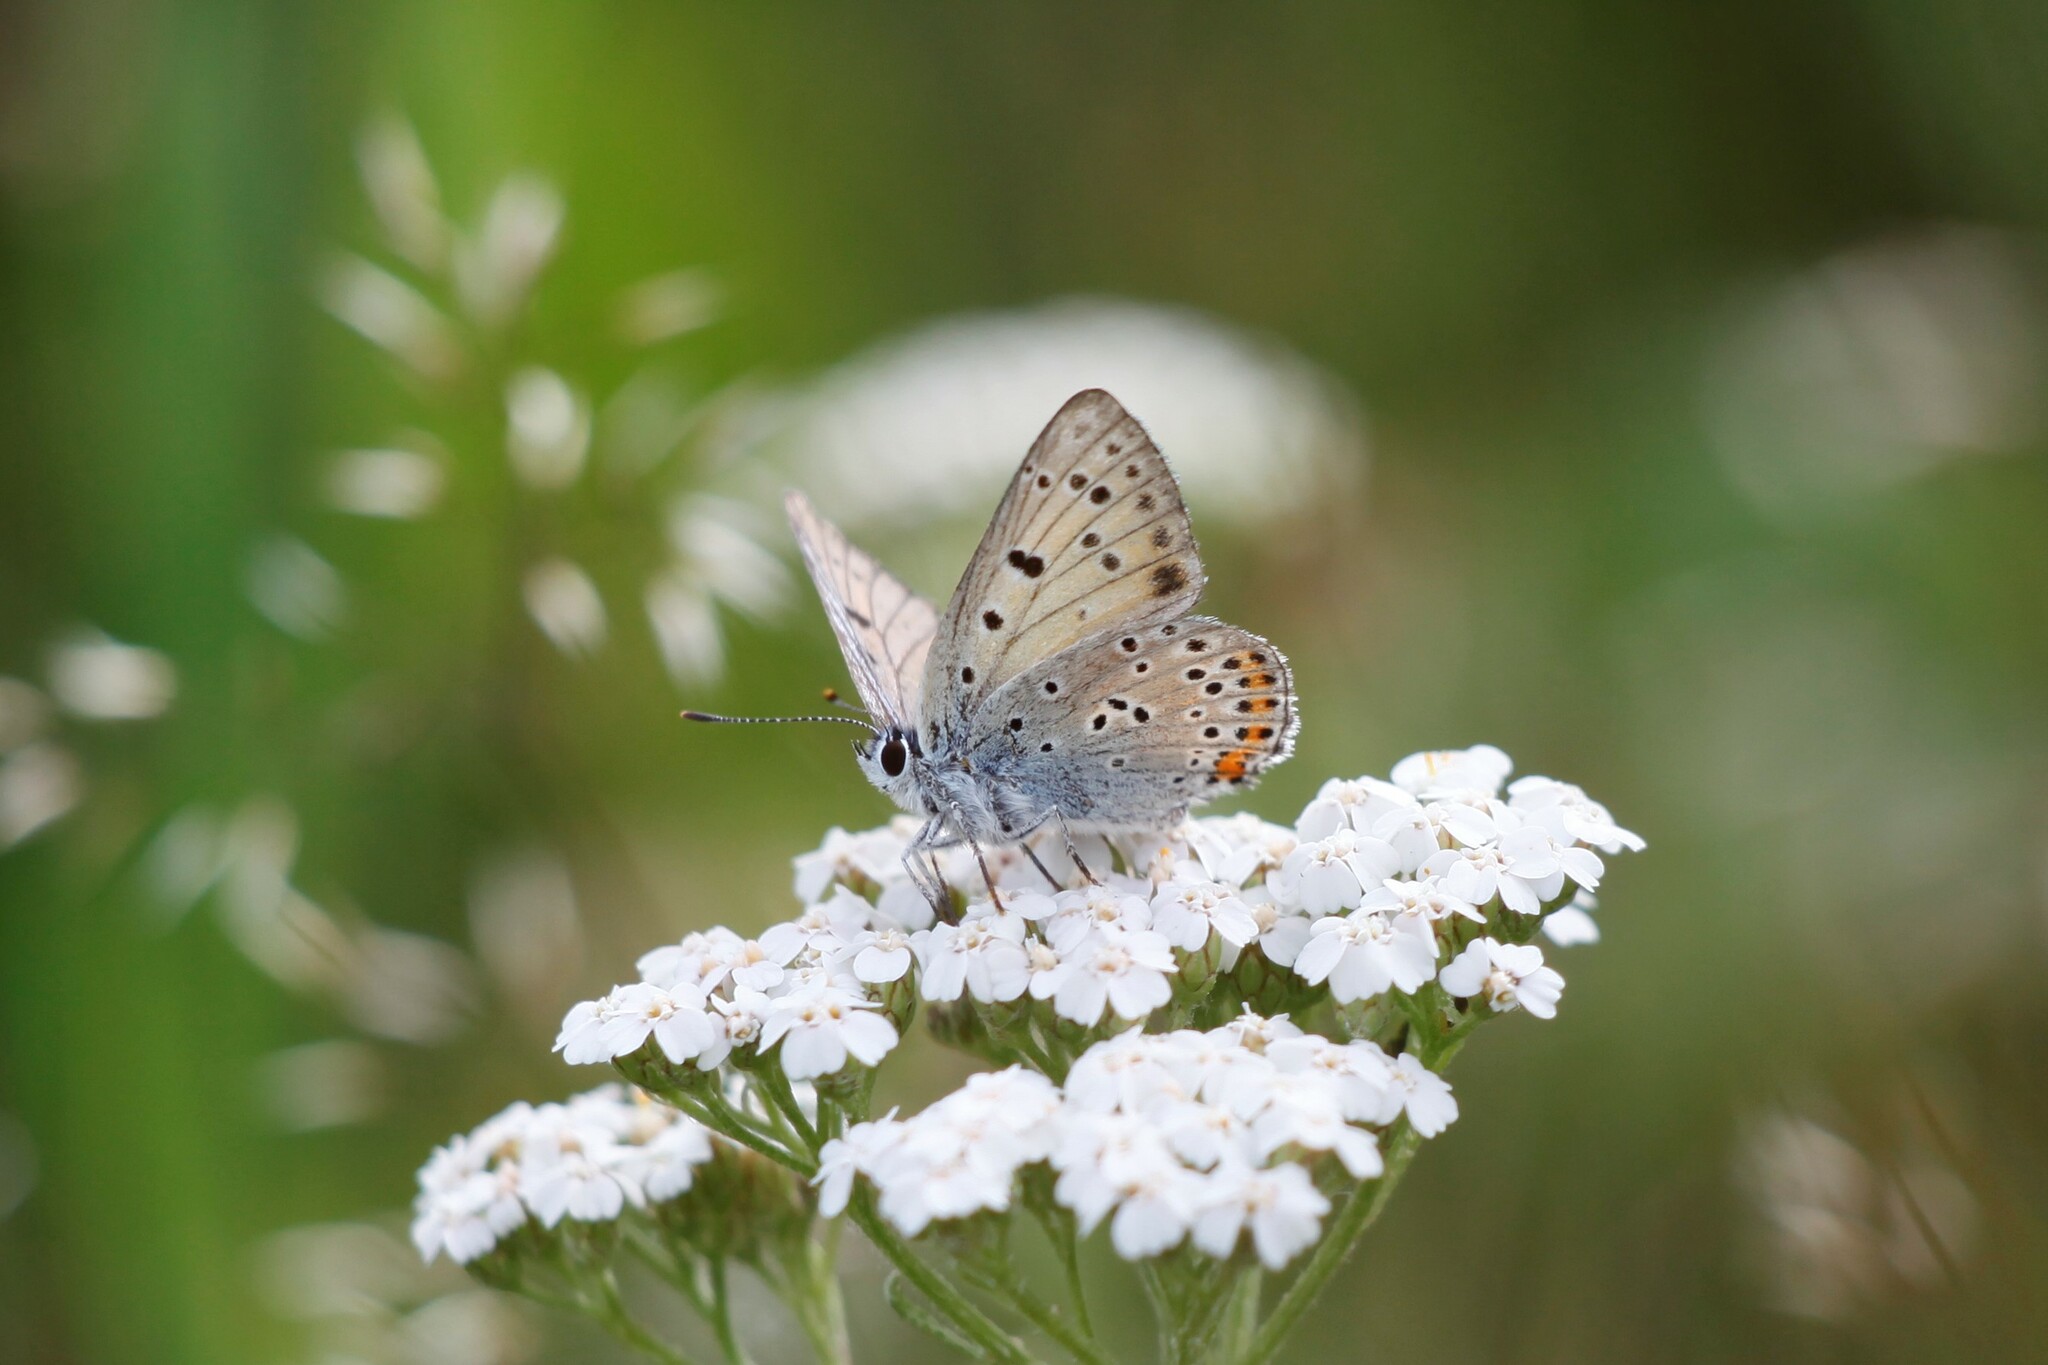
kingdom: Animalia
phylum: Arthropoda
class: Insecta
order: Lepidoptera
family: Lycaenidae
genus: Lycaena
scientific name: Lycaena alciphron
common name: Purple-shot copper
